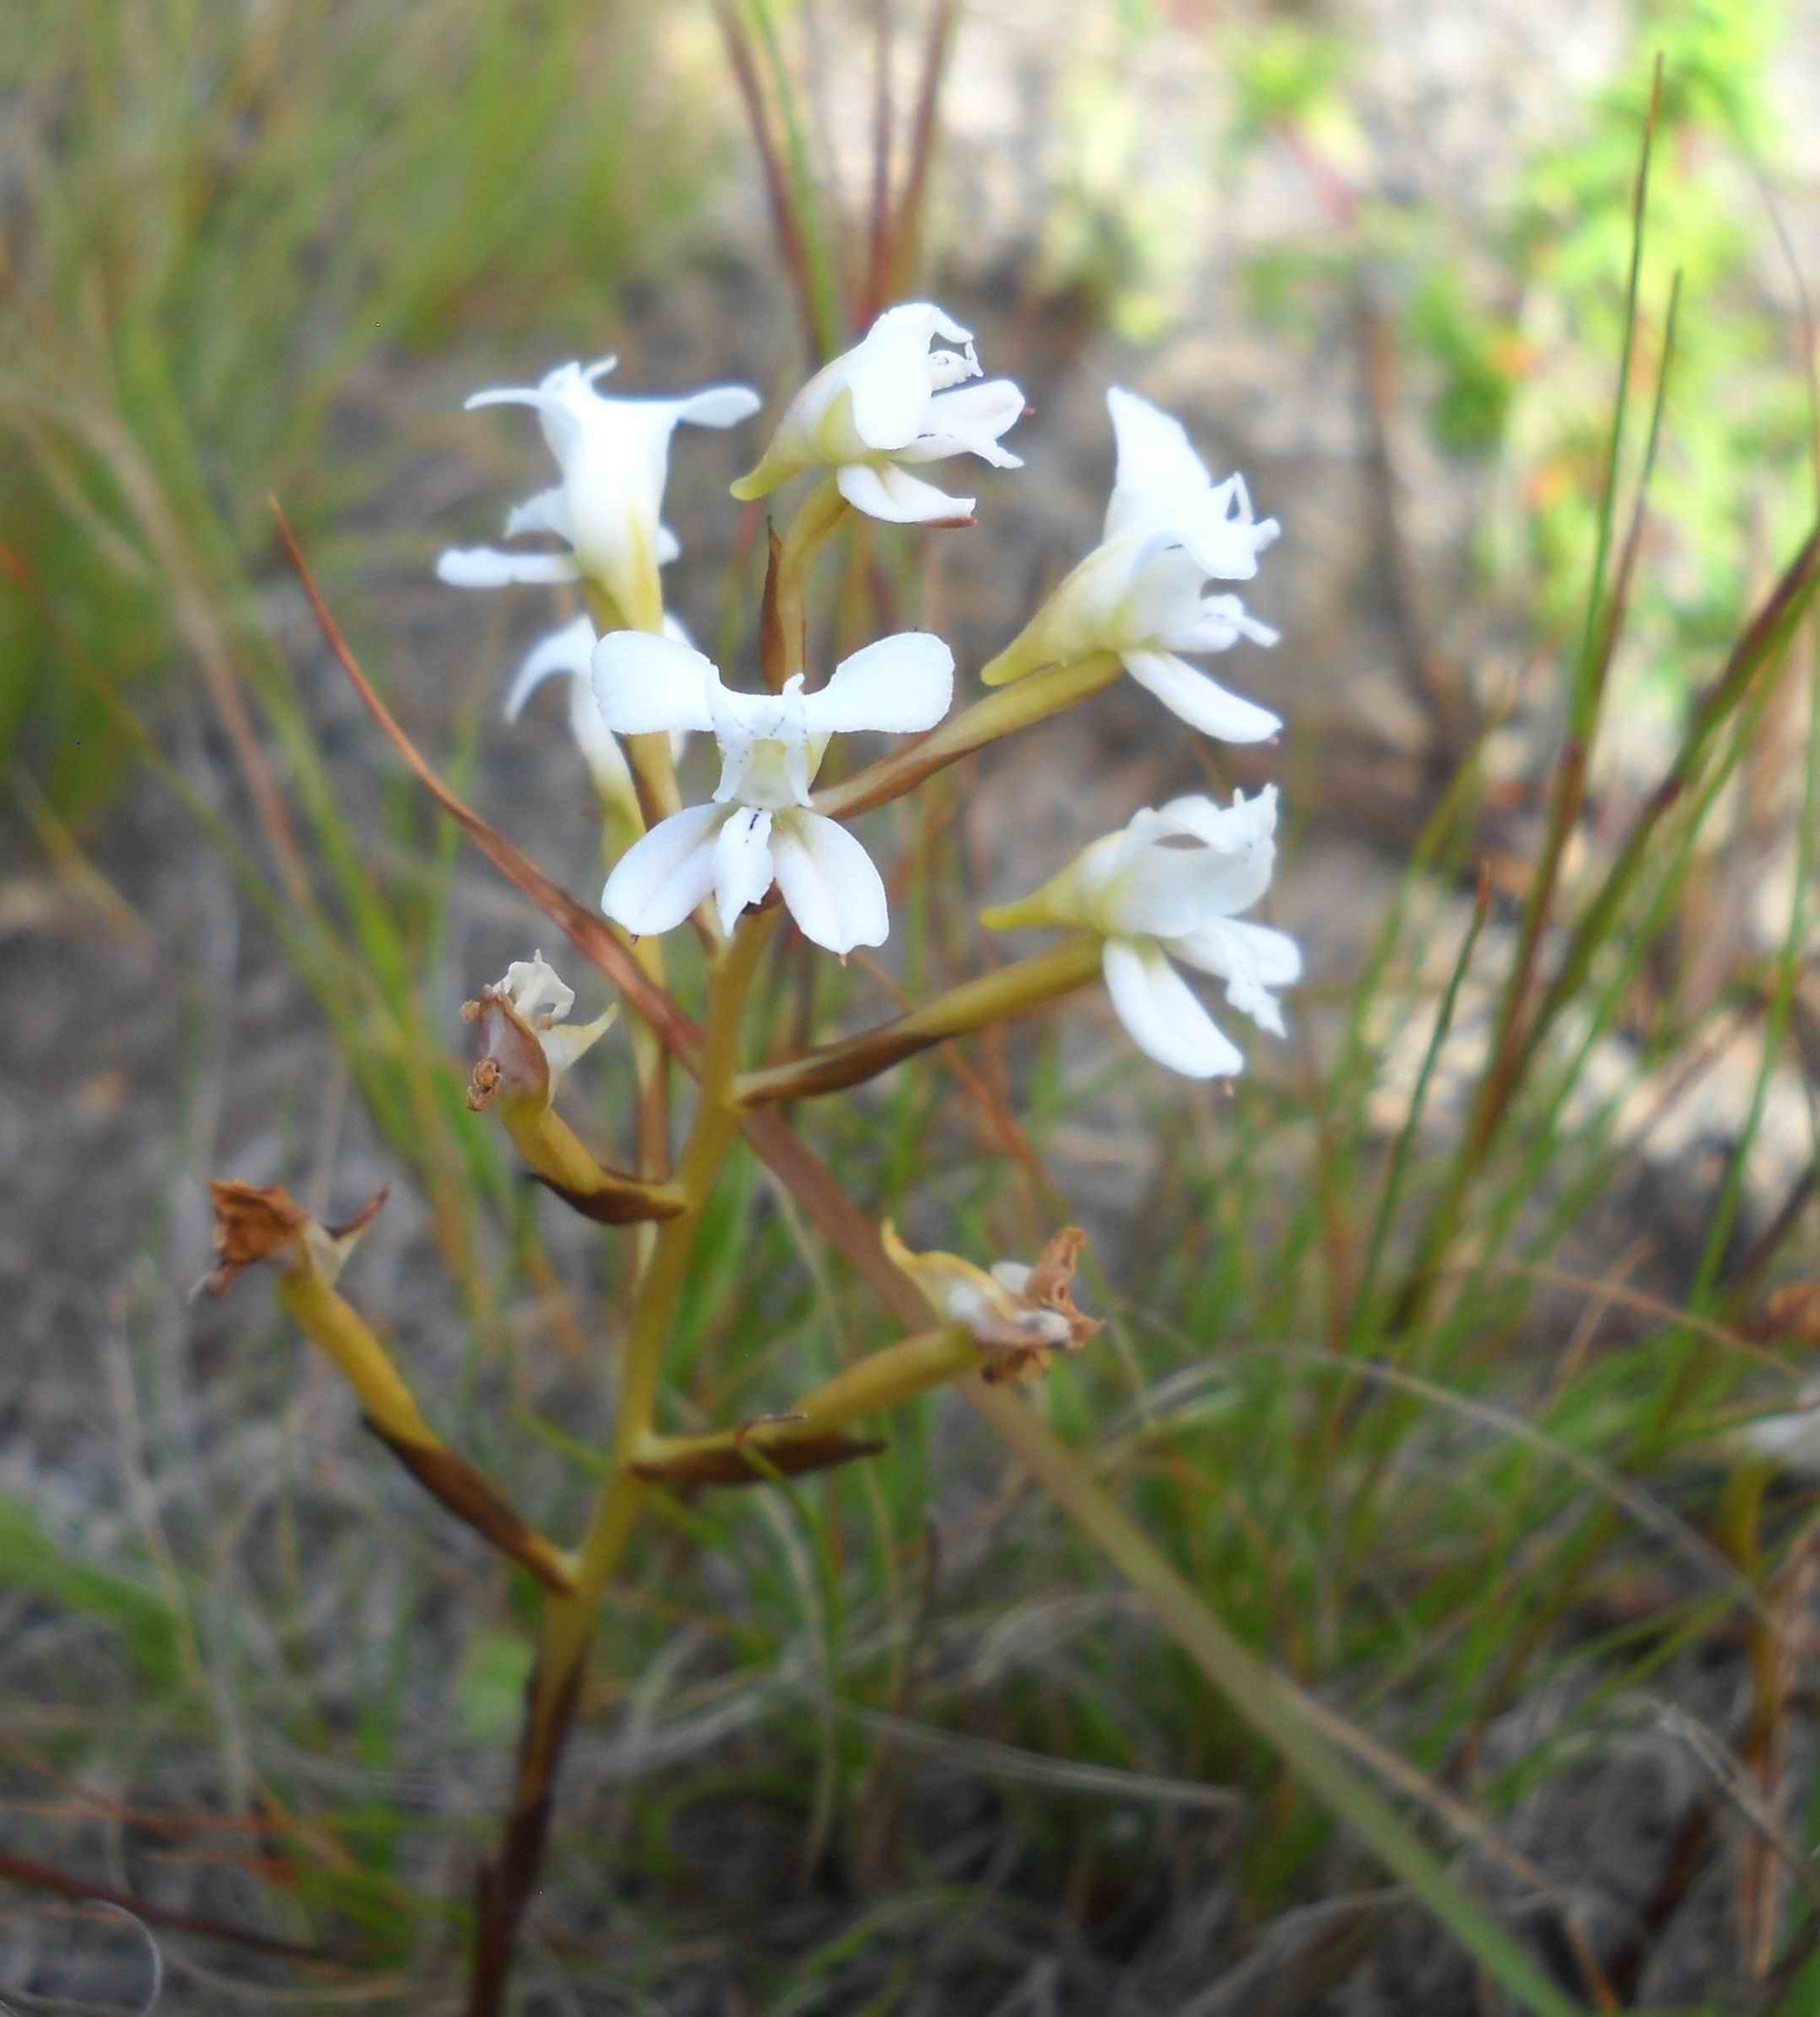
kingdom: Plantae
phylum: Tracheophyta
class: Liliopsida
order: Asparagales
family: Orchidaceae
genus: Disa
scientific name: Disa sagittalis
